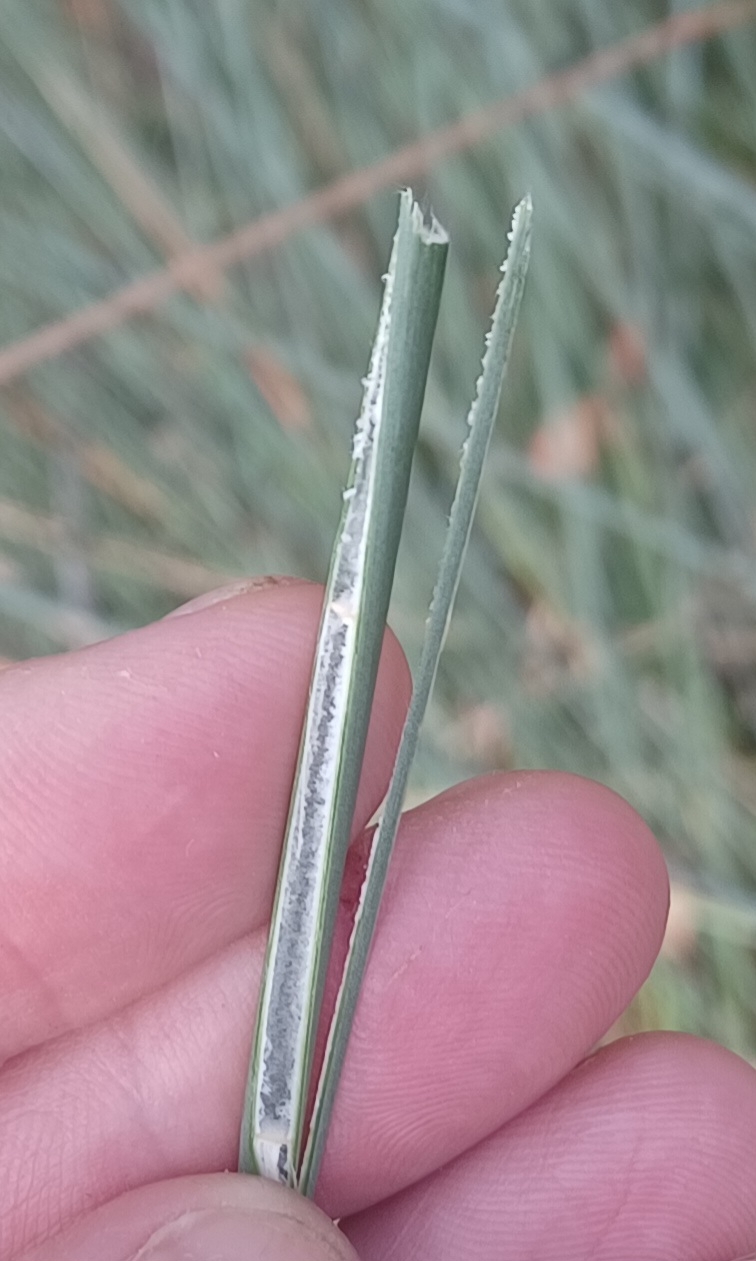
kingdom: Plantae
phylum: Tracheophyta
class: Liliopsida
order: Poales
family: Cyperaceae
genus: Lepironia
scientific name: Lepironia articulata
